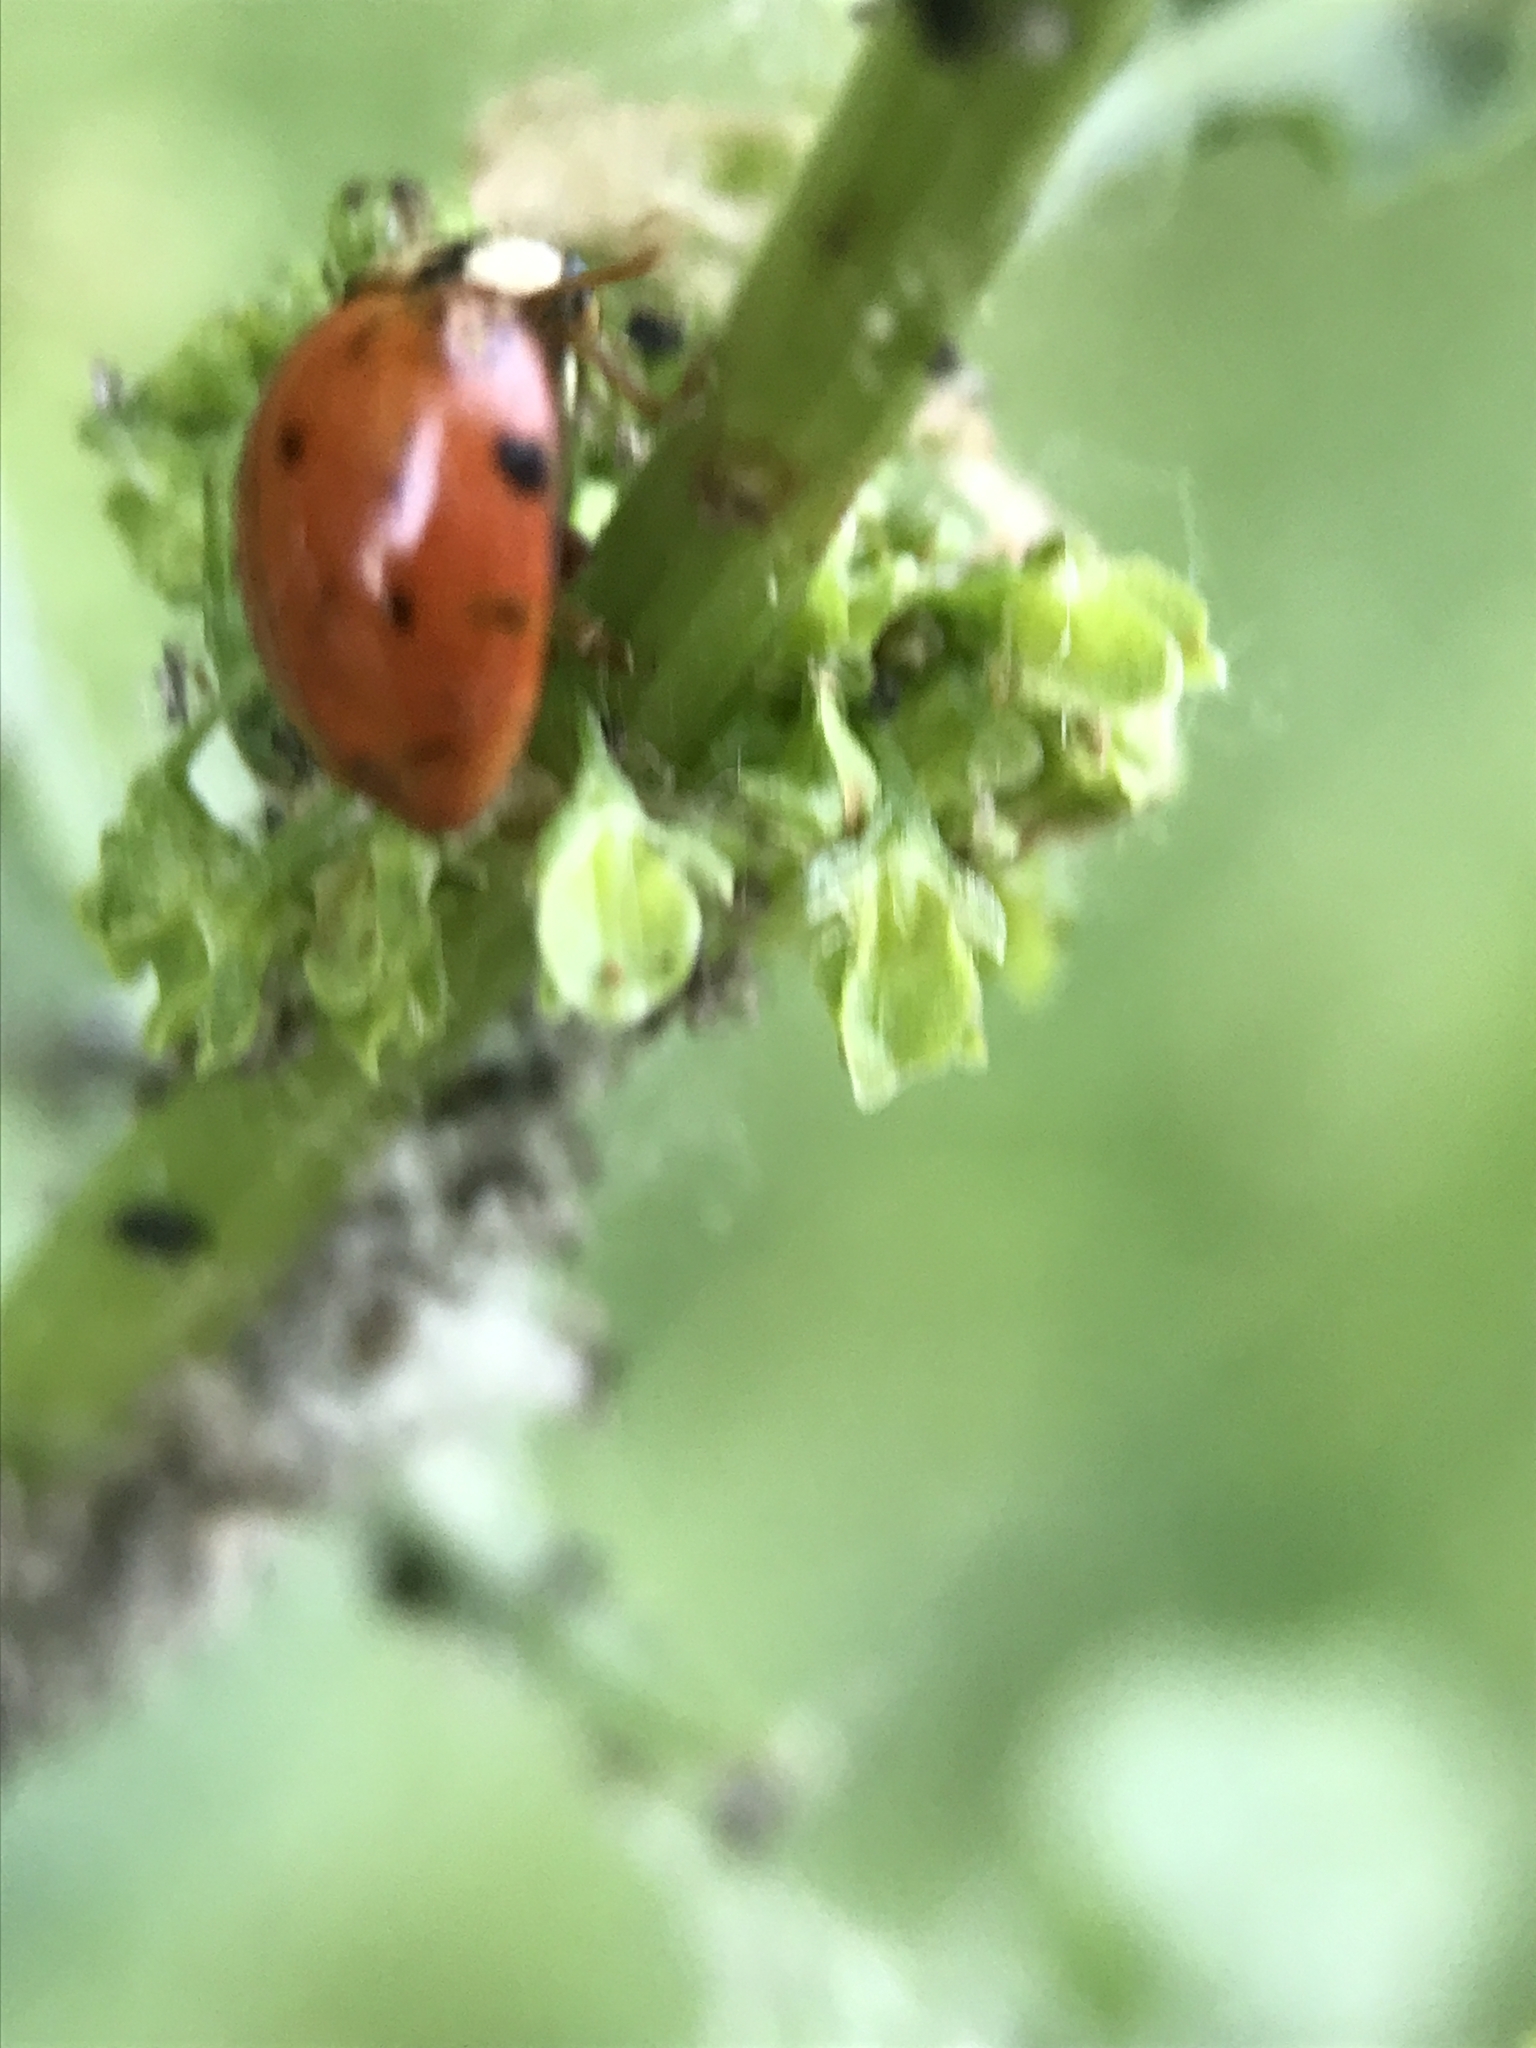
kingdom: Animalia
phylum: Arthropoda
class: Insecta
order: Coleoptera
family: Coccinellidae
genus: Harmonia
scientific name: Harmonia axyridis
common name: Harlequin ladybird
